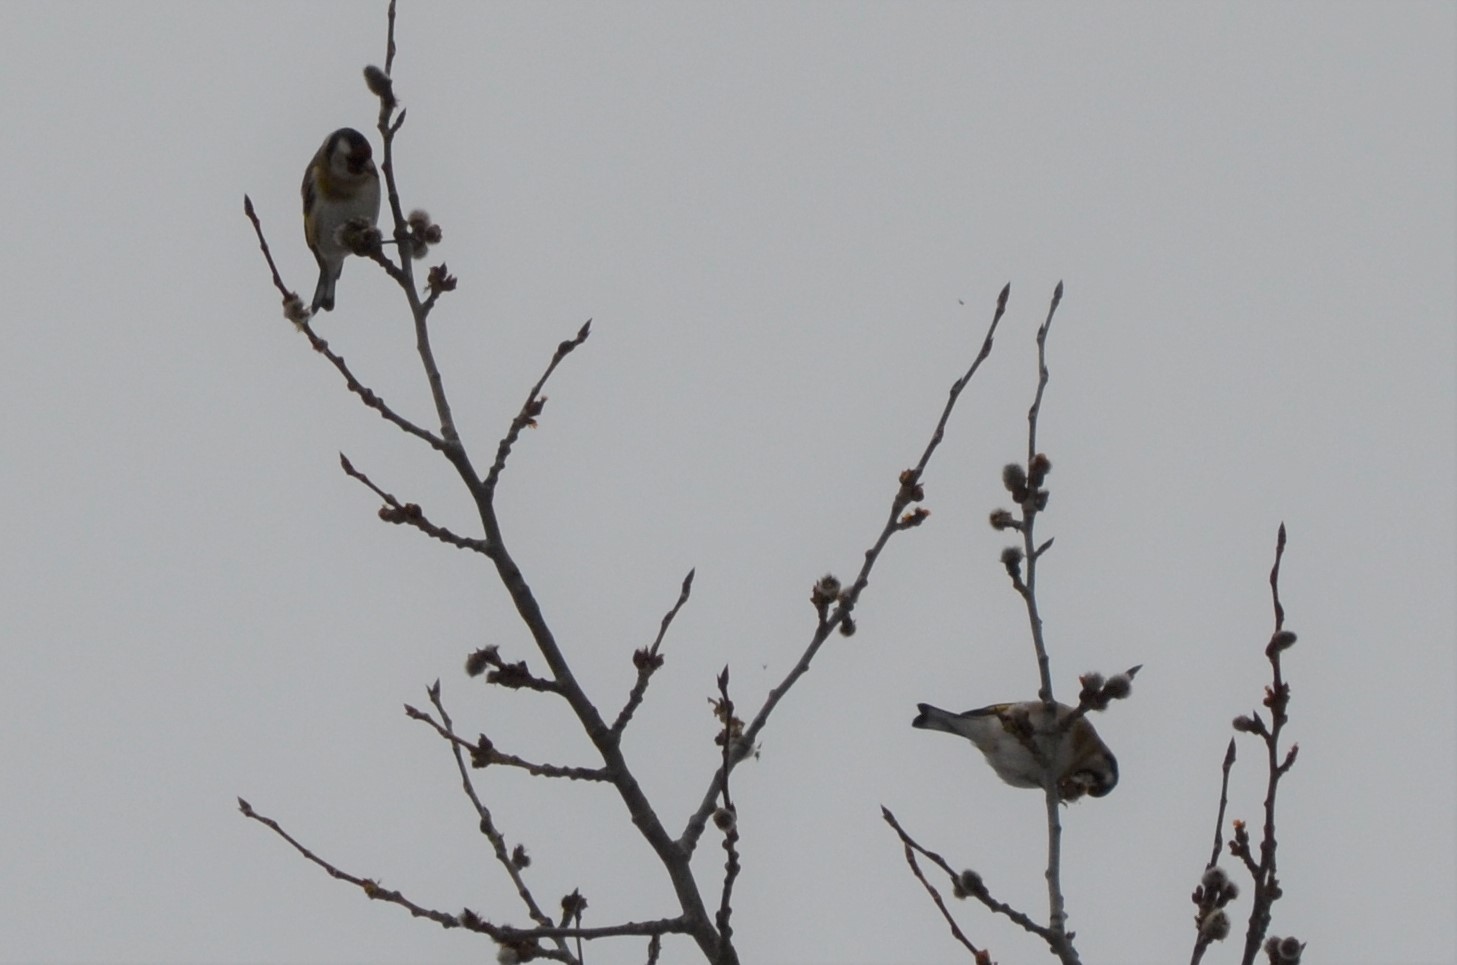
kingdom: Animalia
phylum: Chordata
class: Aves
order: Passeriformes
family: Fringillidae
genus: Carduelis
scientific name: Carduelis carduelis
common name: European goldfinch
